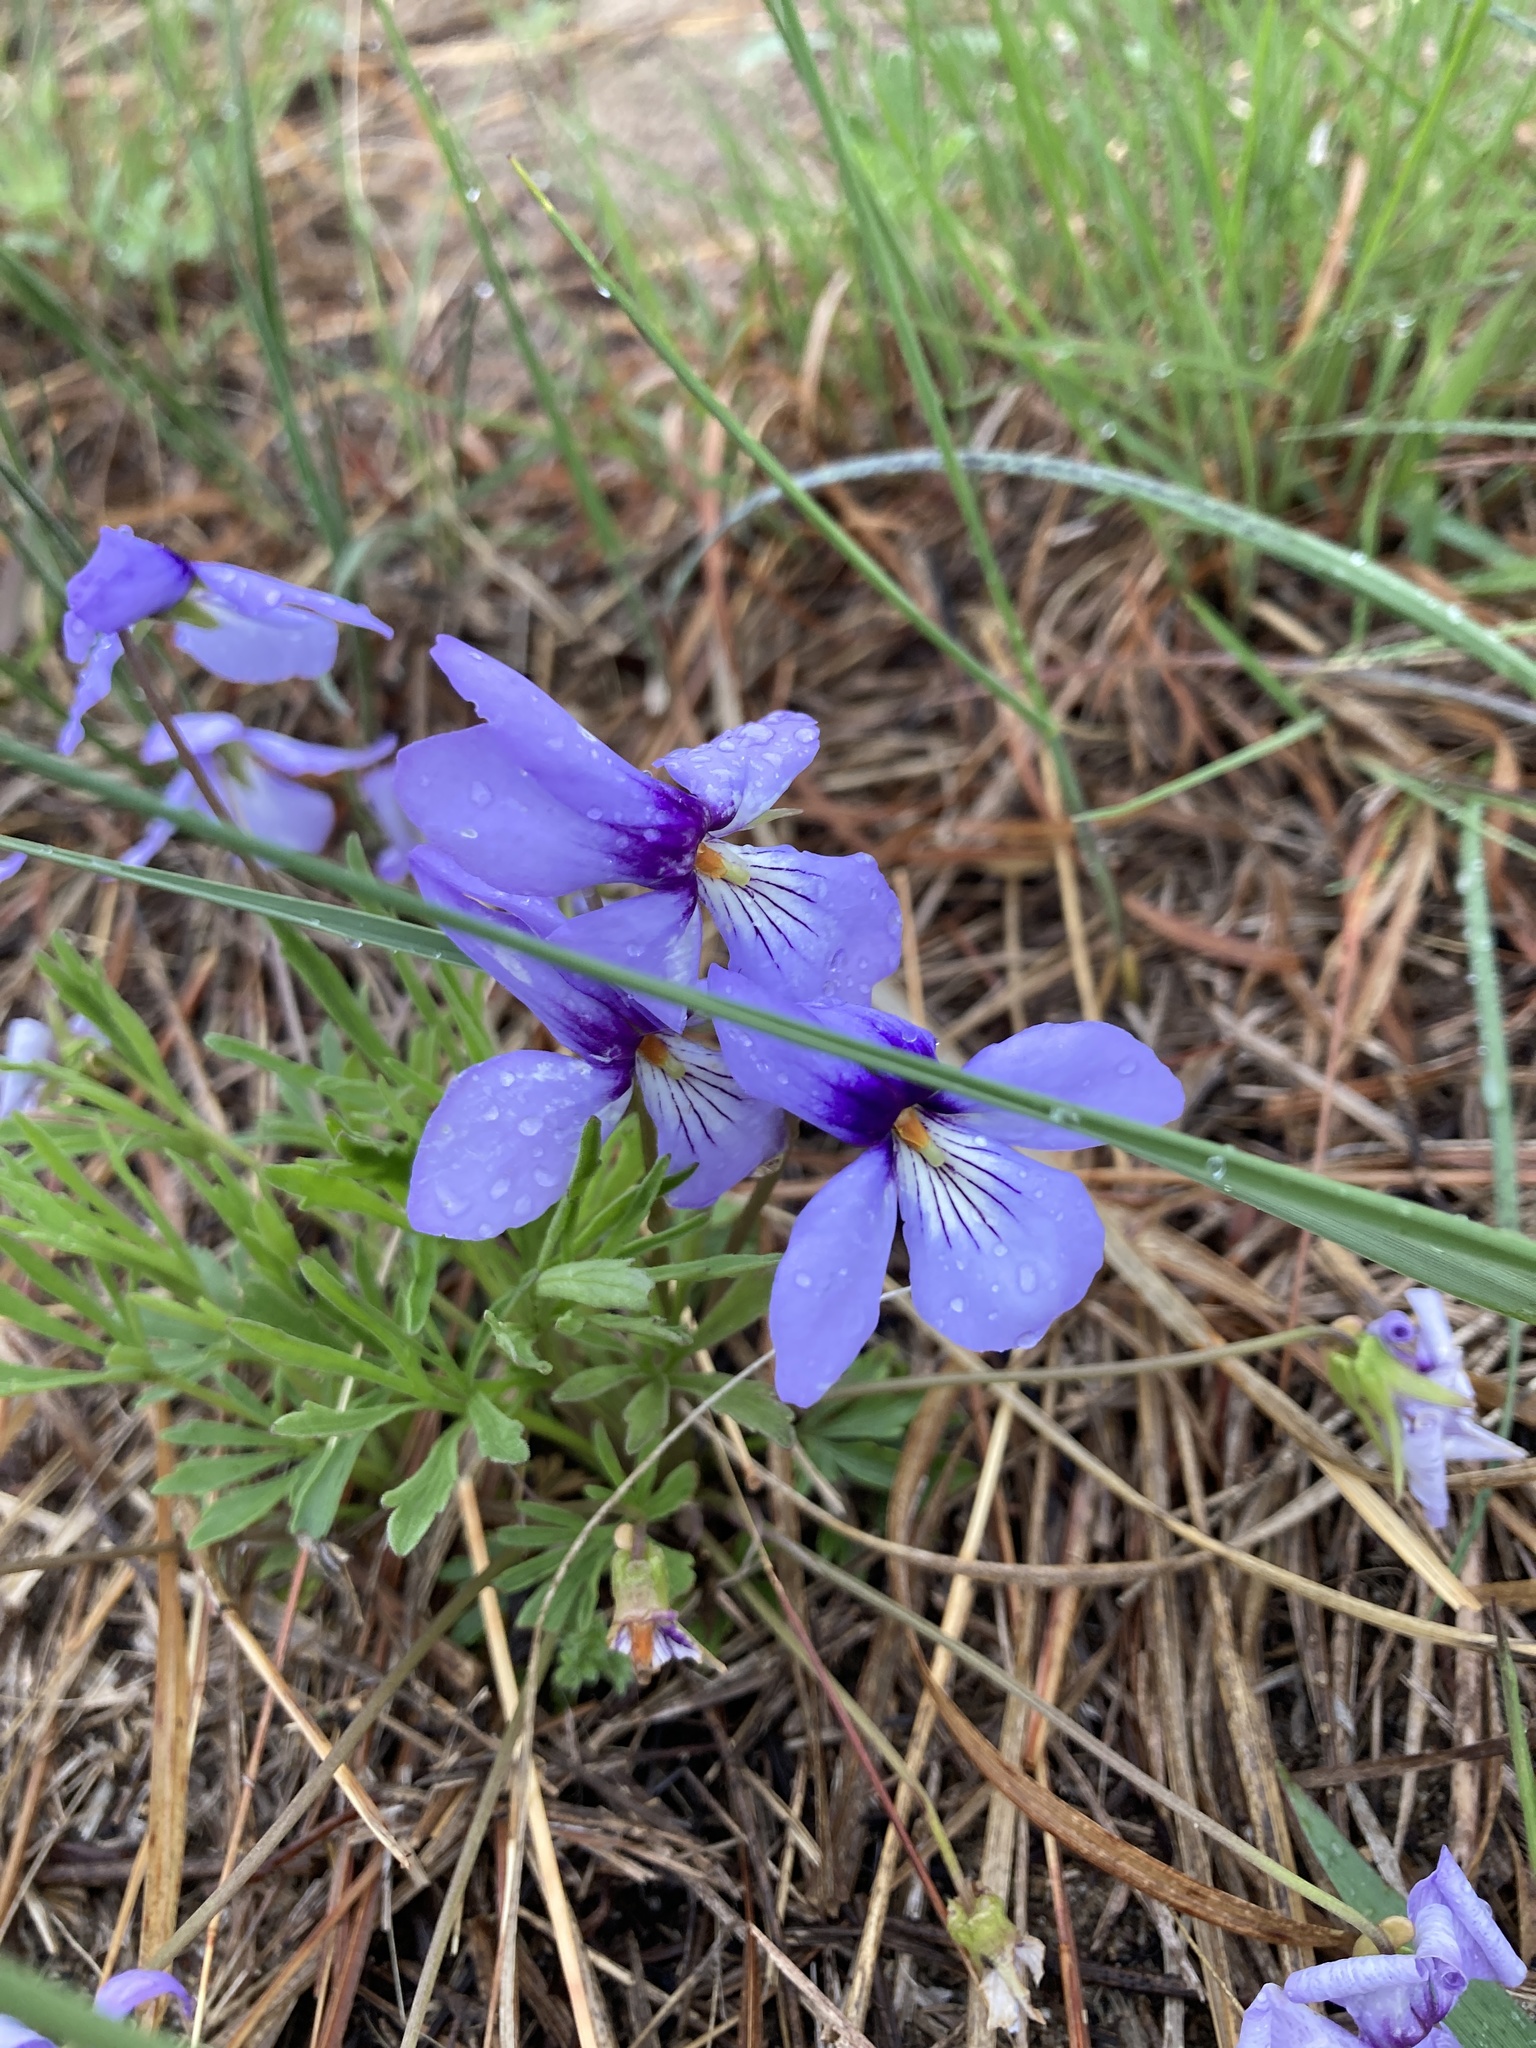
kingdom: Plantae
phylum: Tracheophyta
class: Magnoliopsida
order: Malpighiales
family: Violaceae
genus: Viola
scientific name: Viola pedata
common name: Pansy violet
